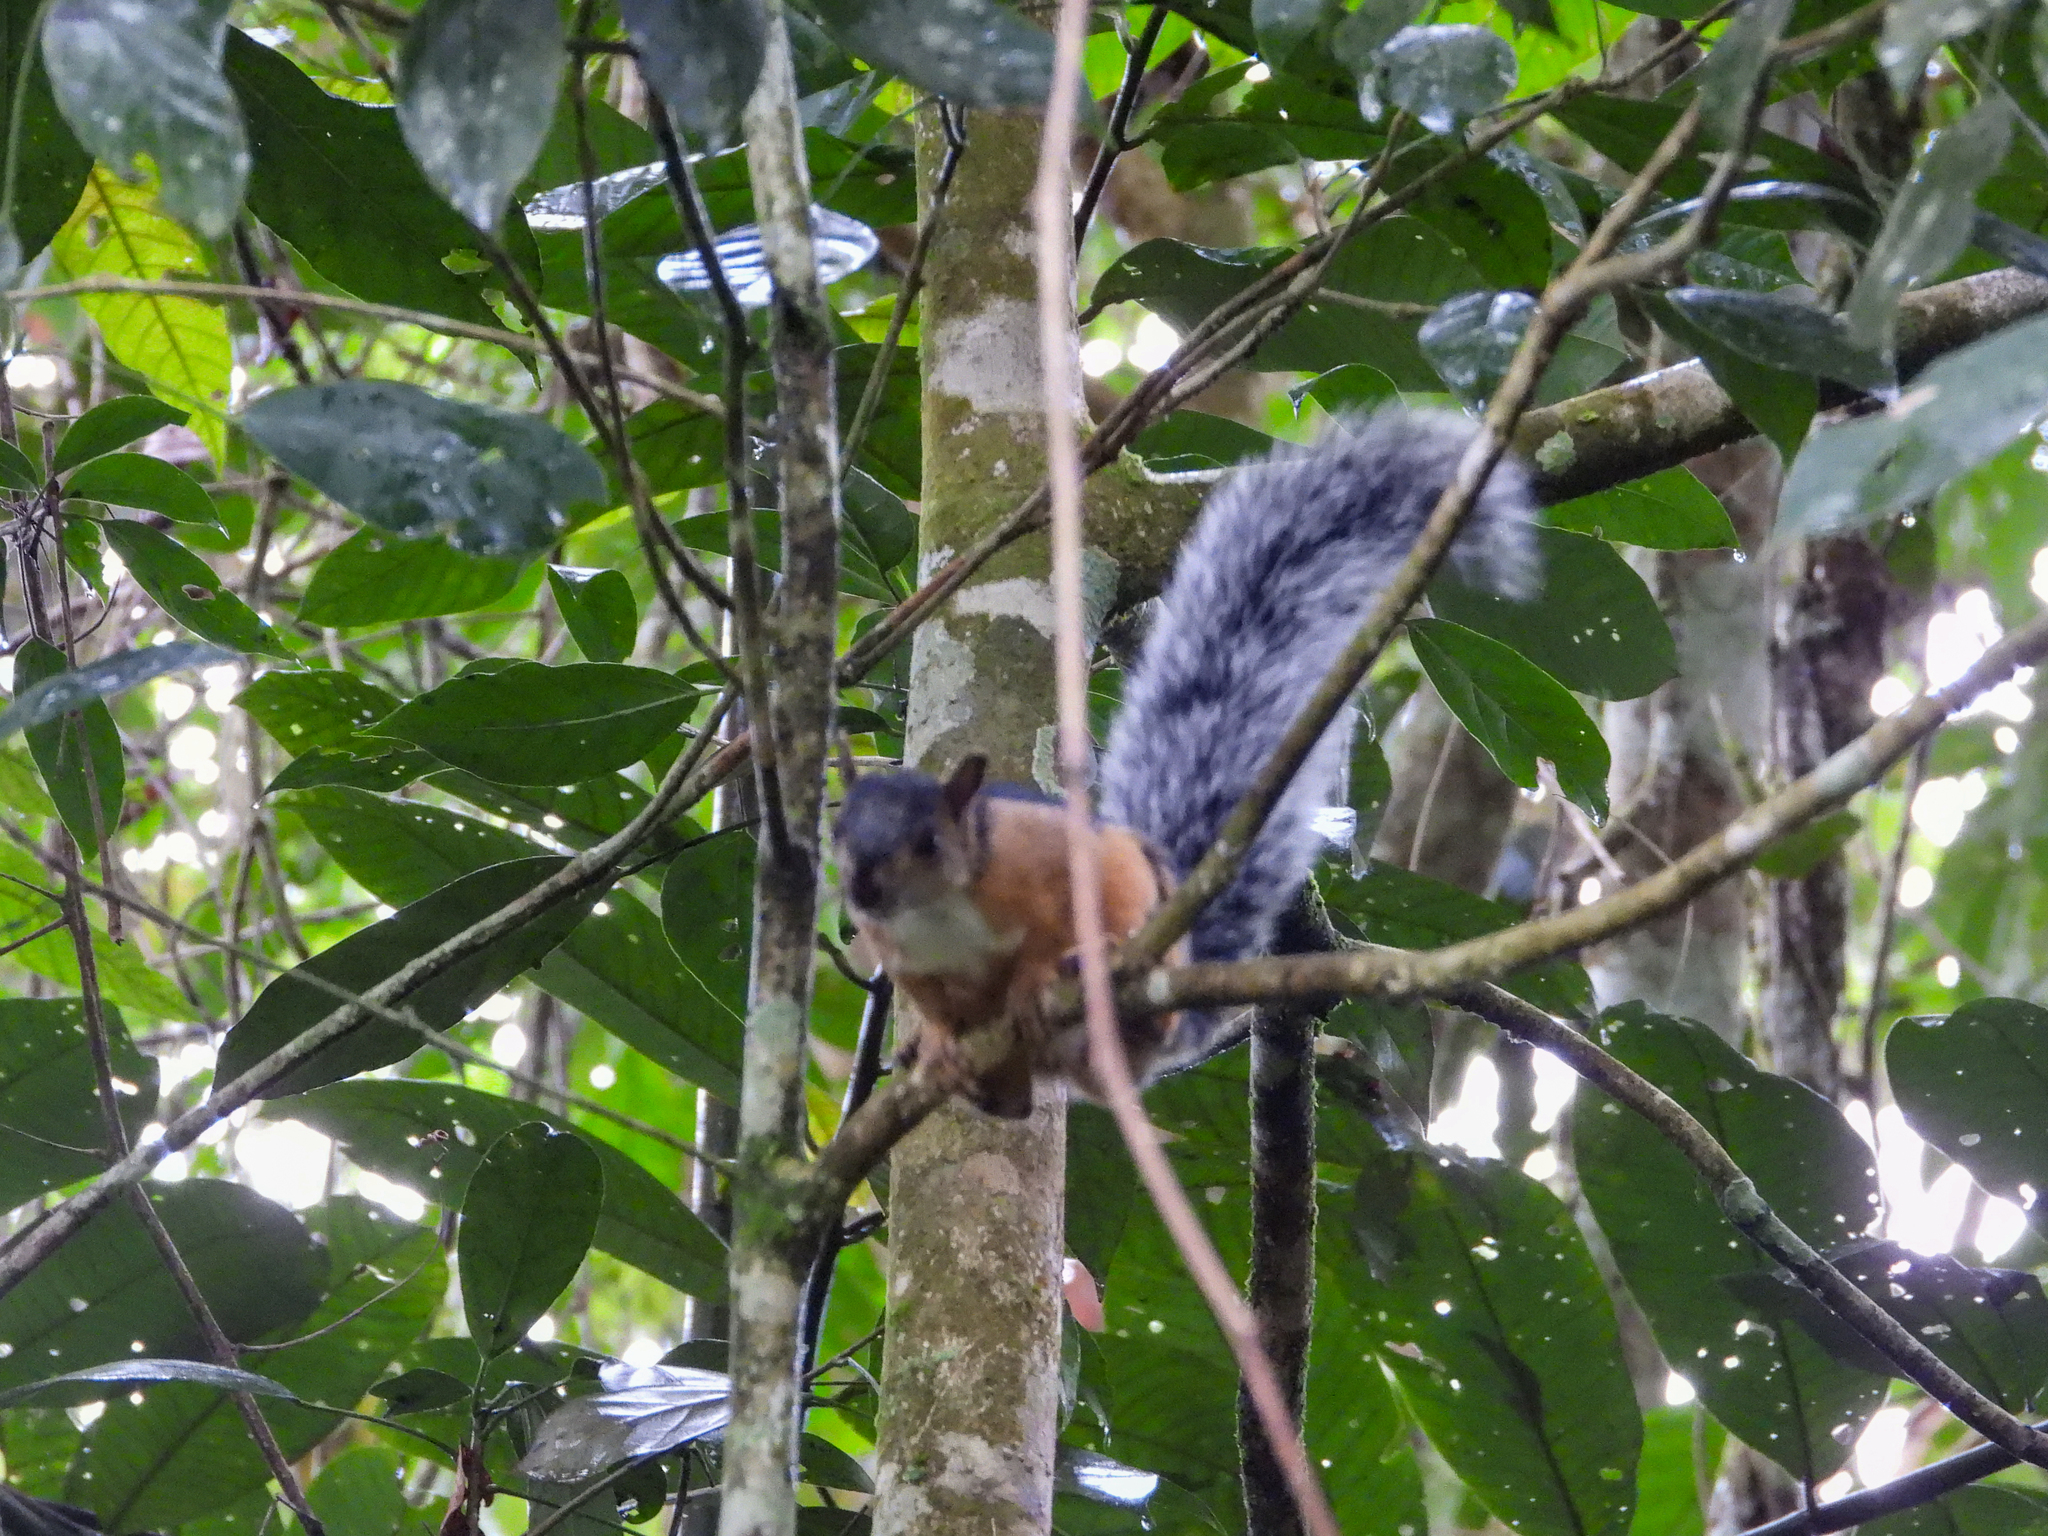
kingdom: Animalia
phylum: Chordata
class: Mammalia
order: Rodentia
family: Sciuridae
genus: Sciurus
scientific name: Sciurus variegatoides
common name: Variegated squirrel
